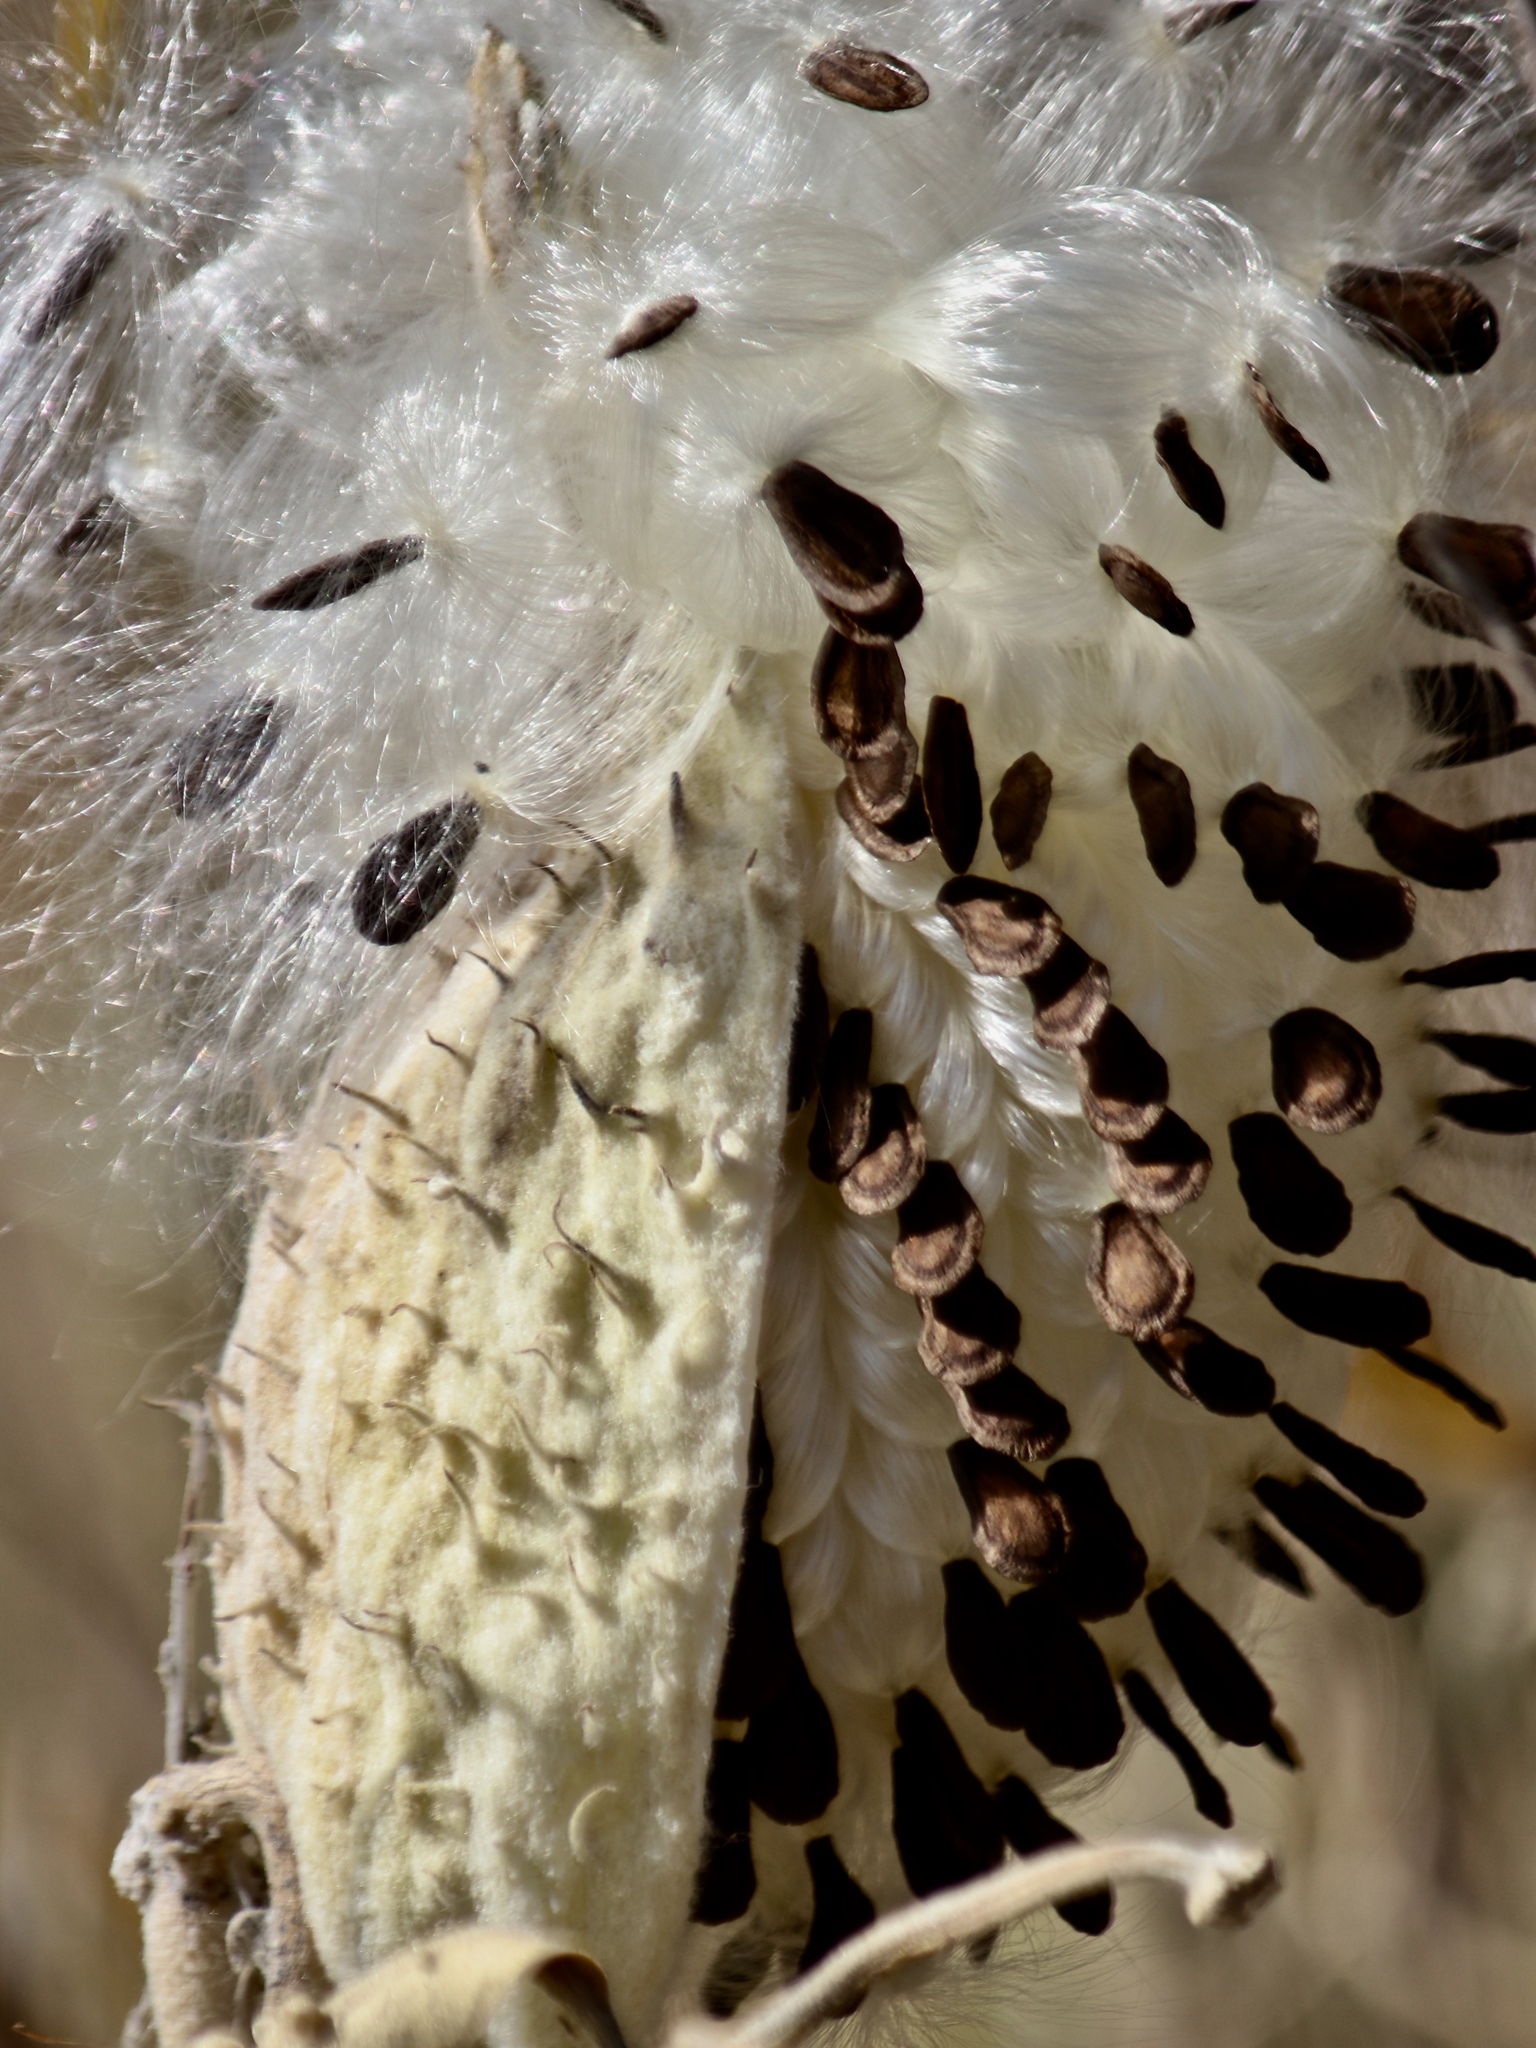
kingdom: Plantae
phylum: Tracheophyta
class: Magnoliopsida
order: Gentianales
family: Apocynaceae
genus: Asclepias
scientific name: Asclepias speciosa
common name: Showy milkweed
